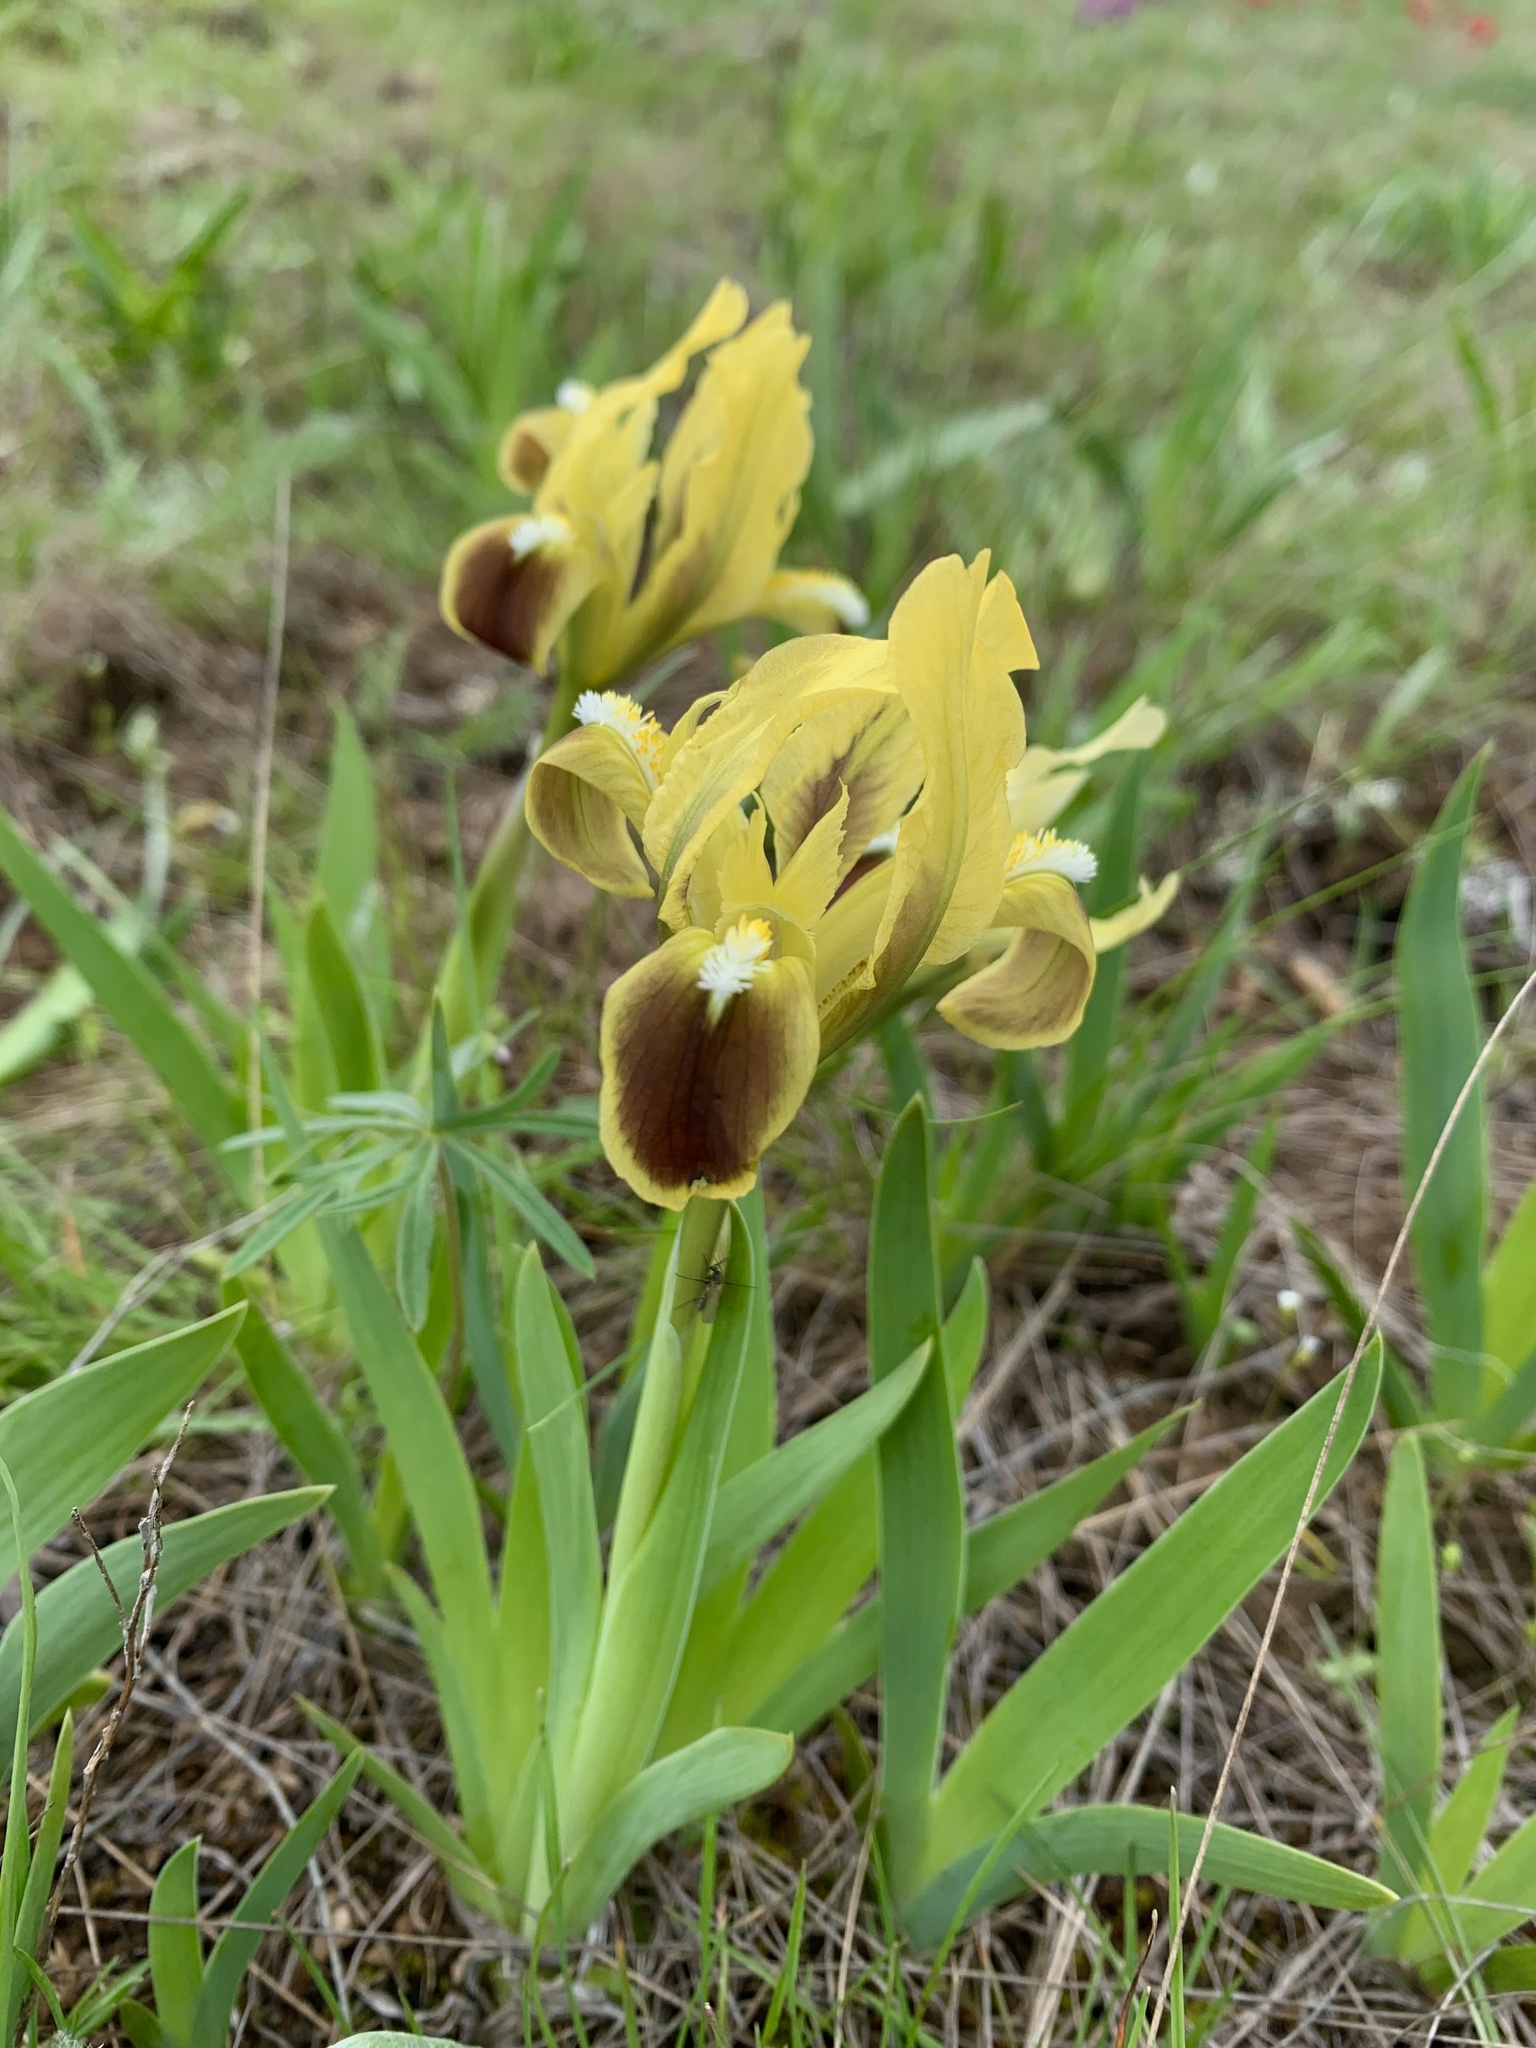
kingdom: Plantae
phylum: Tracheophyta
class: Liliopsida
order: Asparagales
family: Iridaceae
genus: Iris
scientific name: Iris pumila
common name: Dwarf iris
